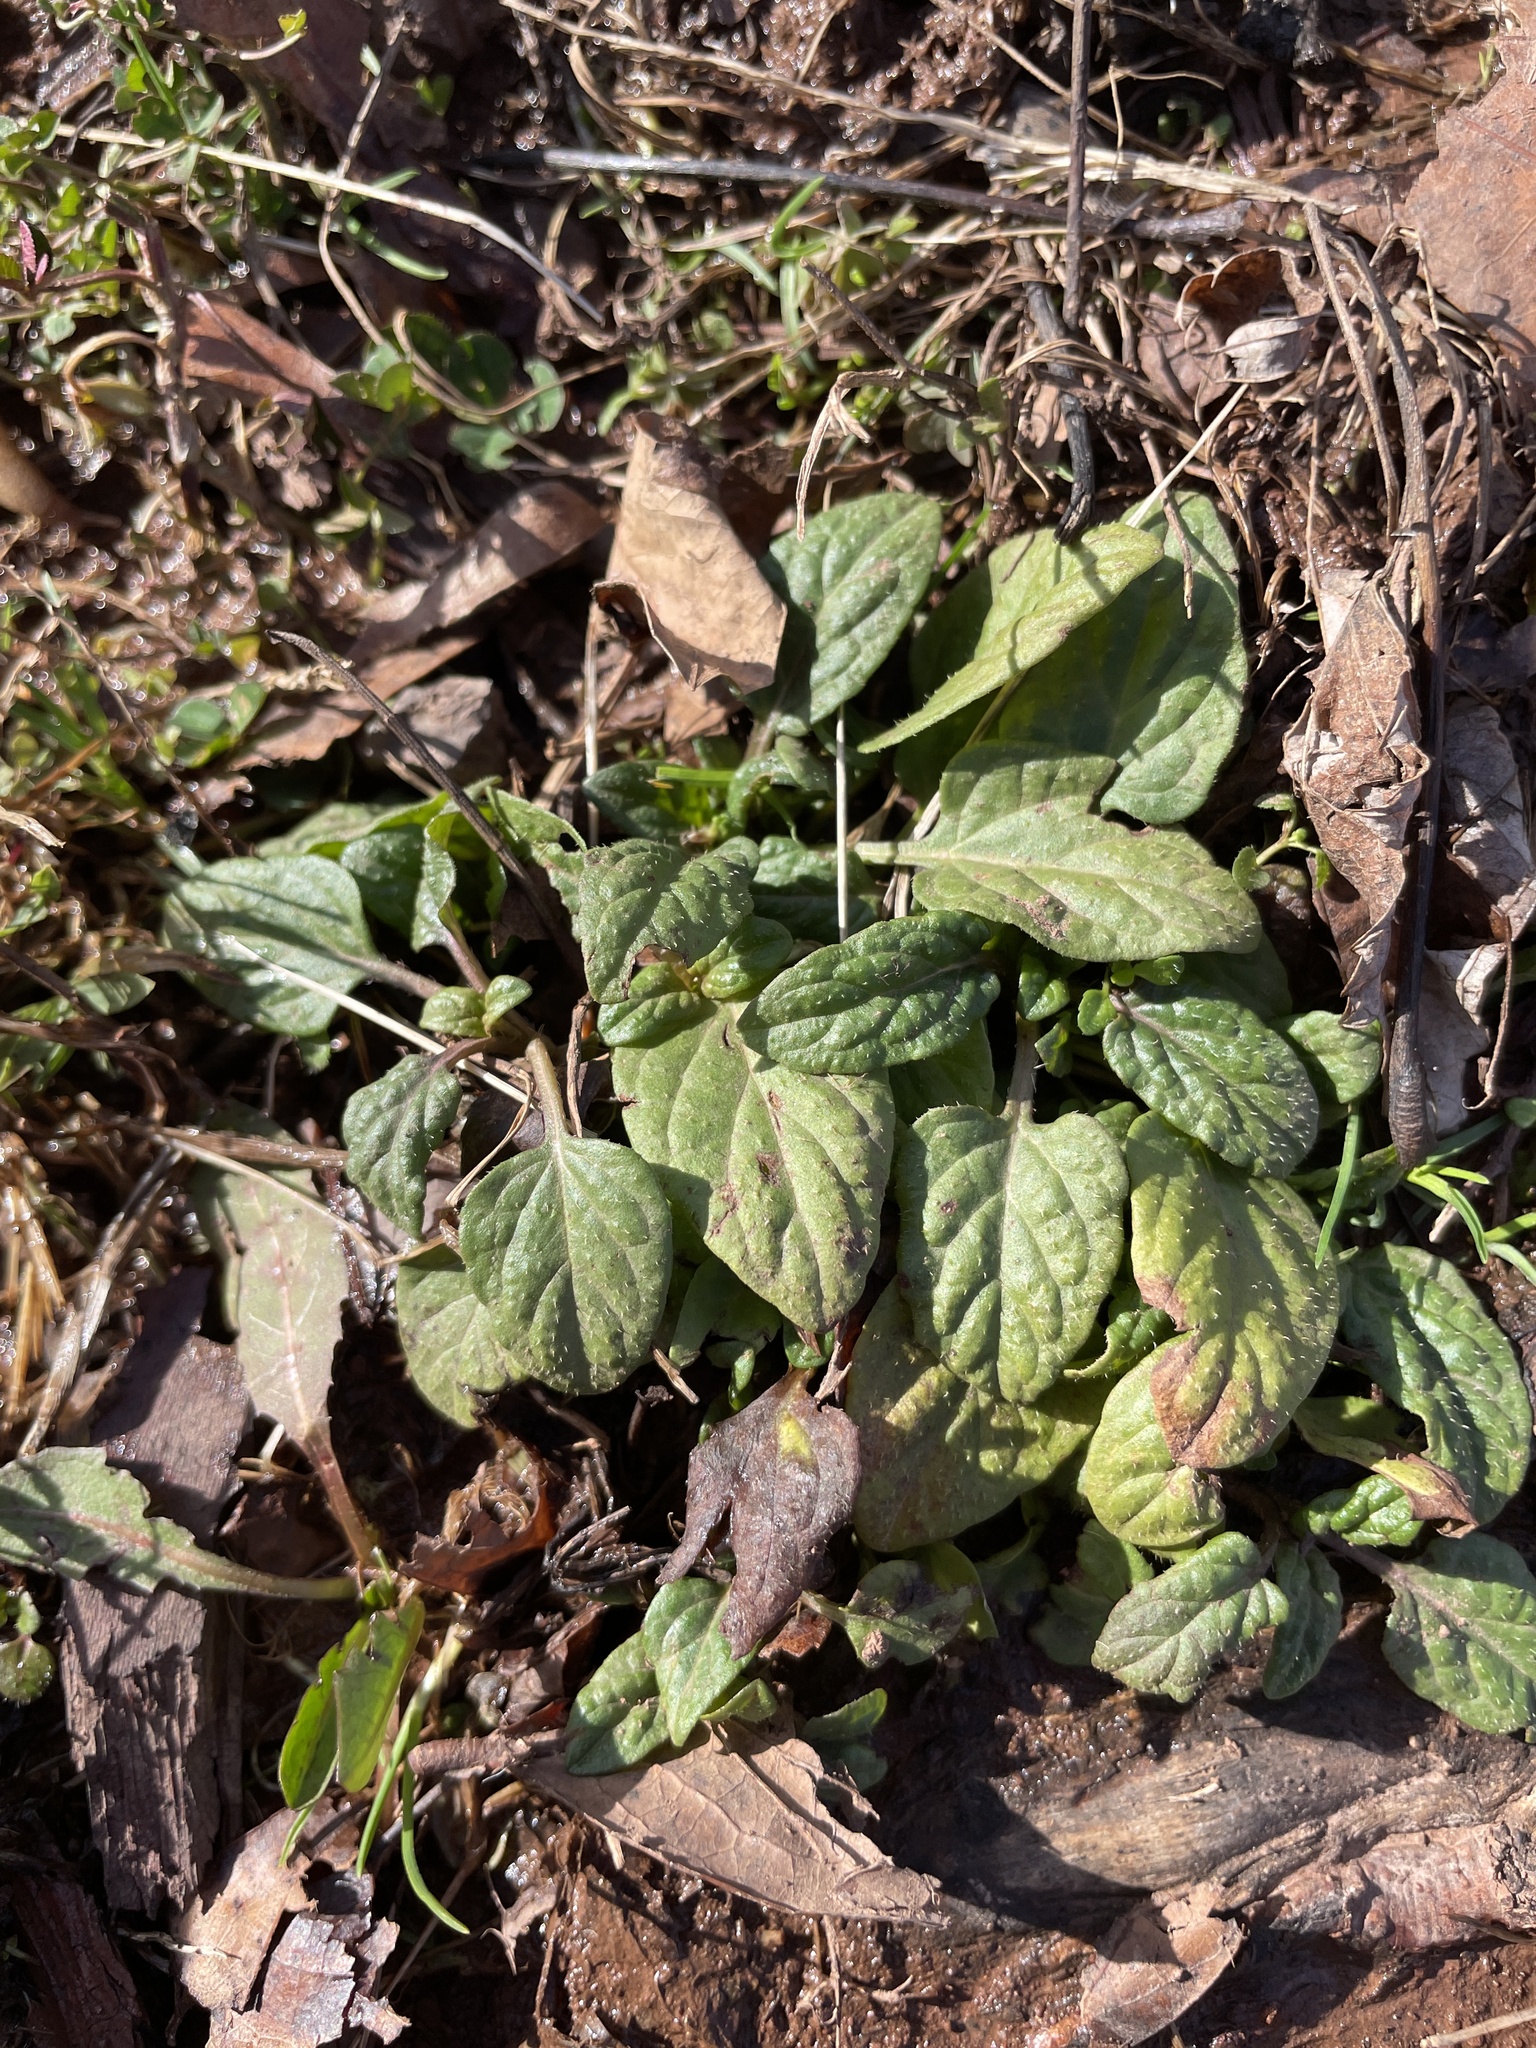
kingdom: Plantae
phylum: Tracheophyta
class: Magnoliopsida
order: Lamiales
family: Lamiaceae
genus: Prunella
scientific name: Prunella vulgaris
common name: Heal-all
